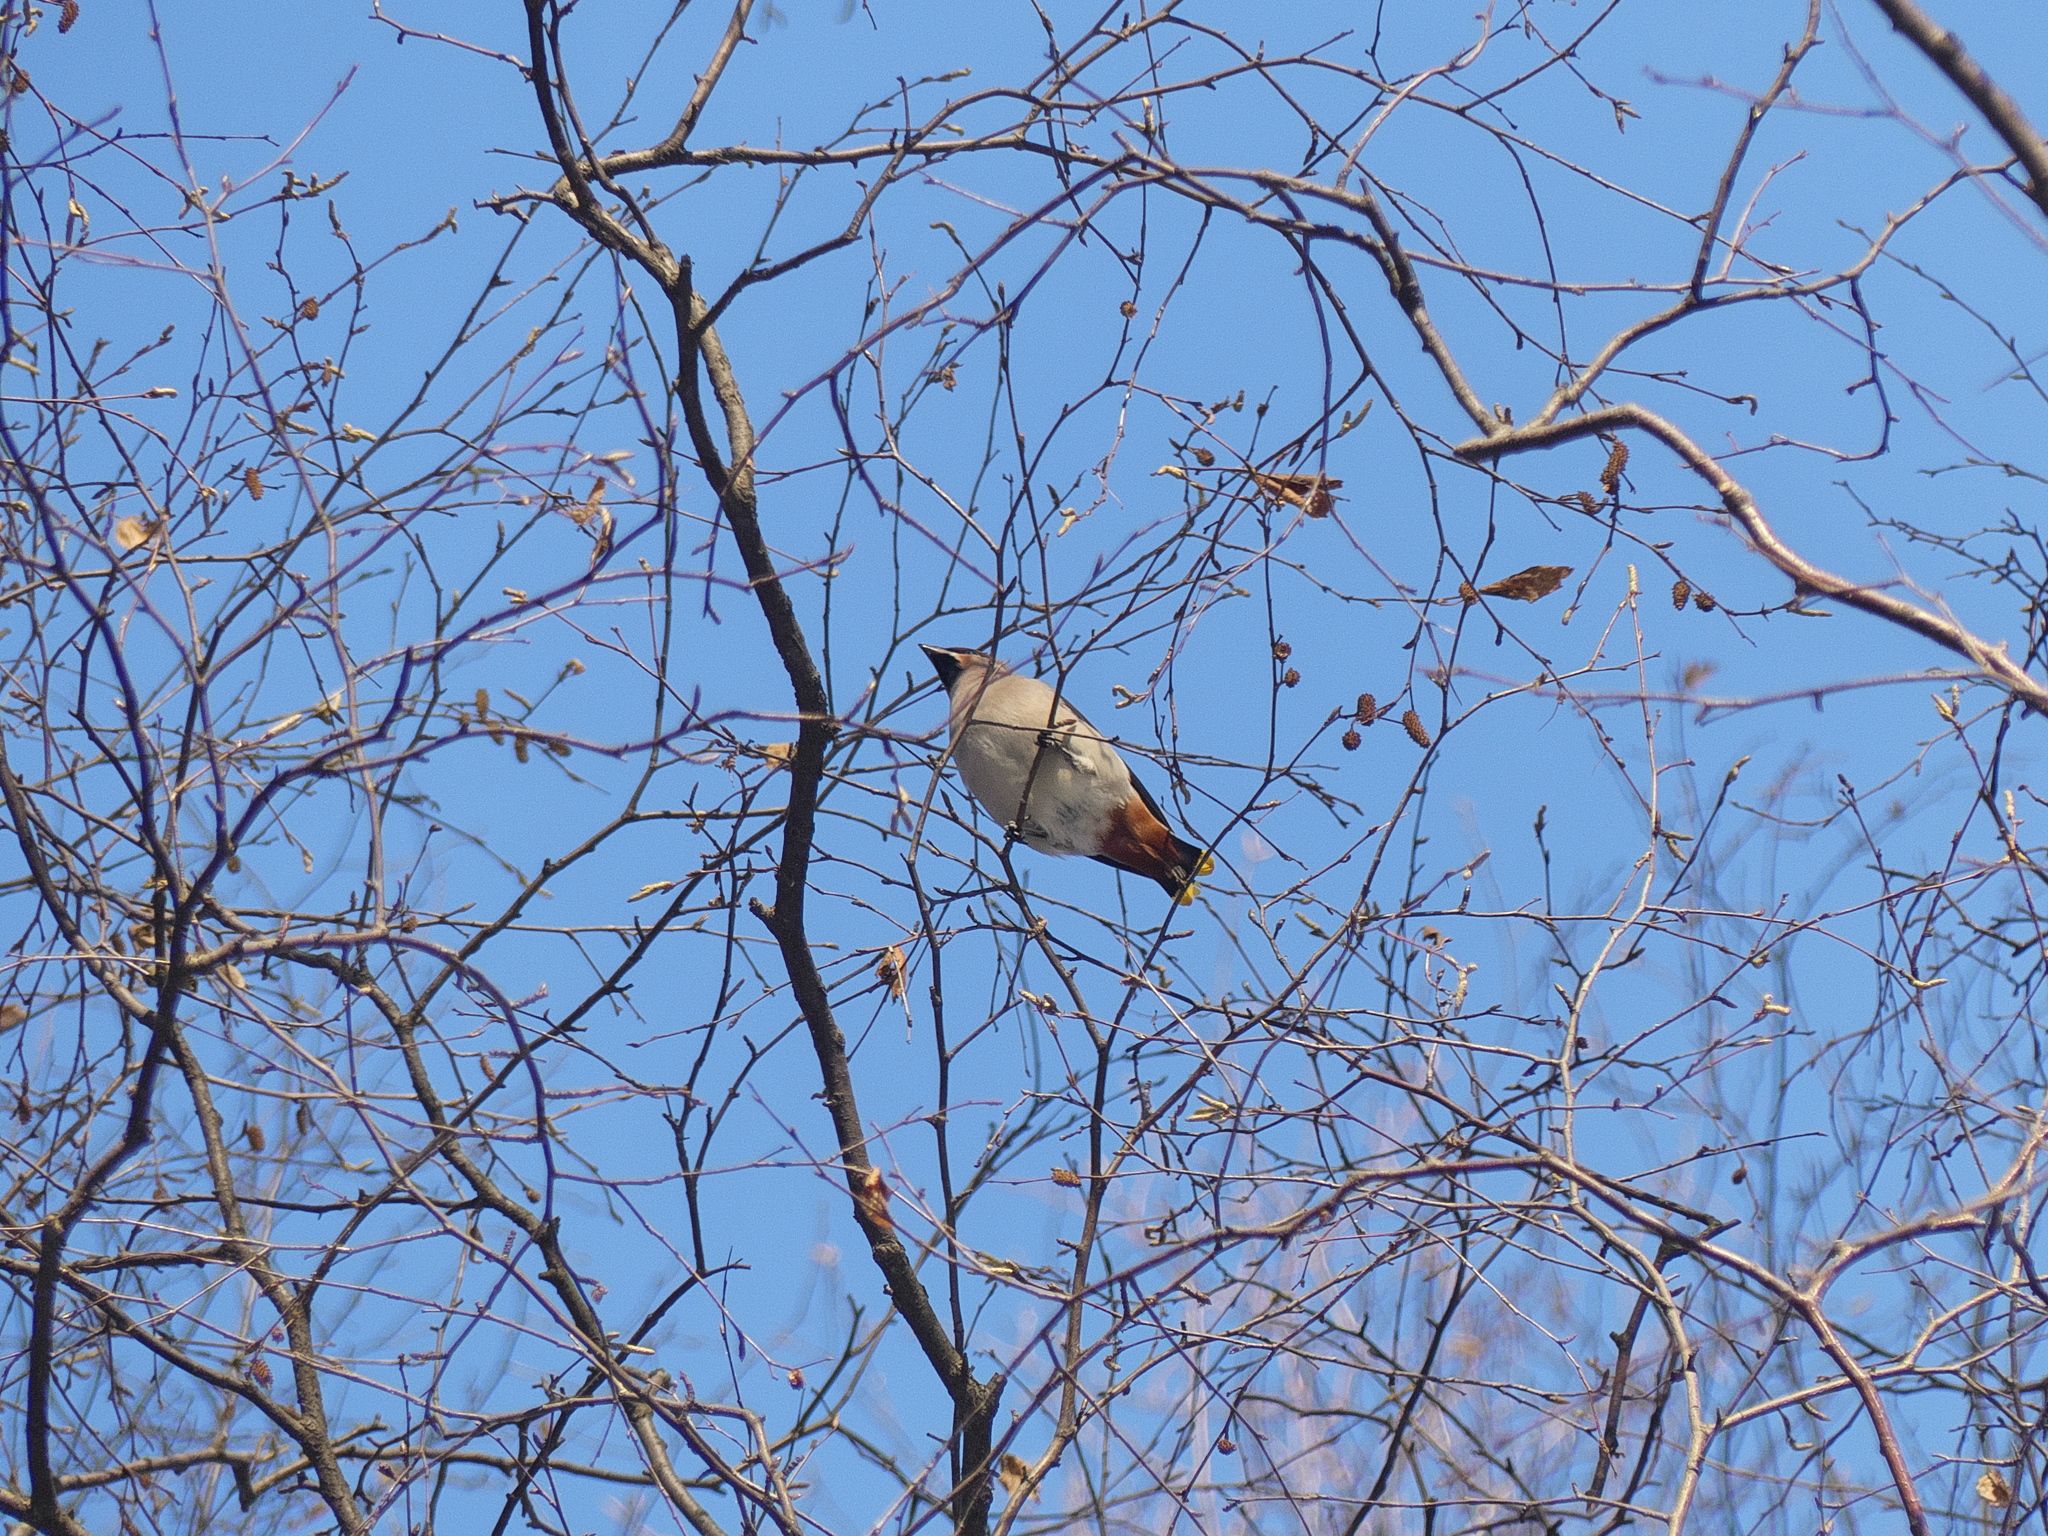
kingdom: Animalia
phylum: Chordata
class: Aves
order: Passeriformes
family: Bombycillidae
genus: Bombycilla
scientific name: Bombycilla garrulus
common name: Bohemian waxwing
